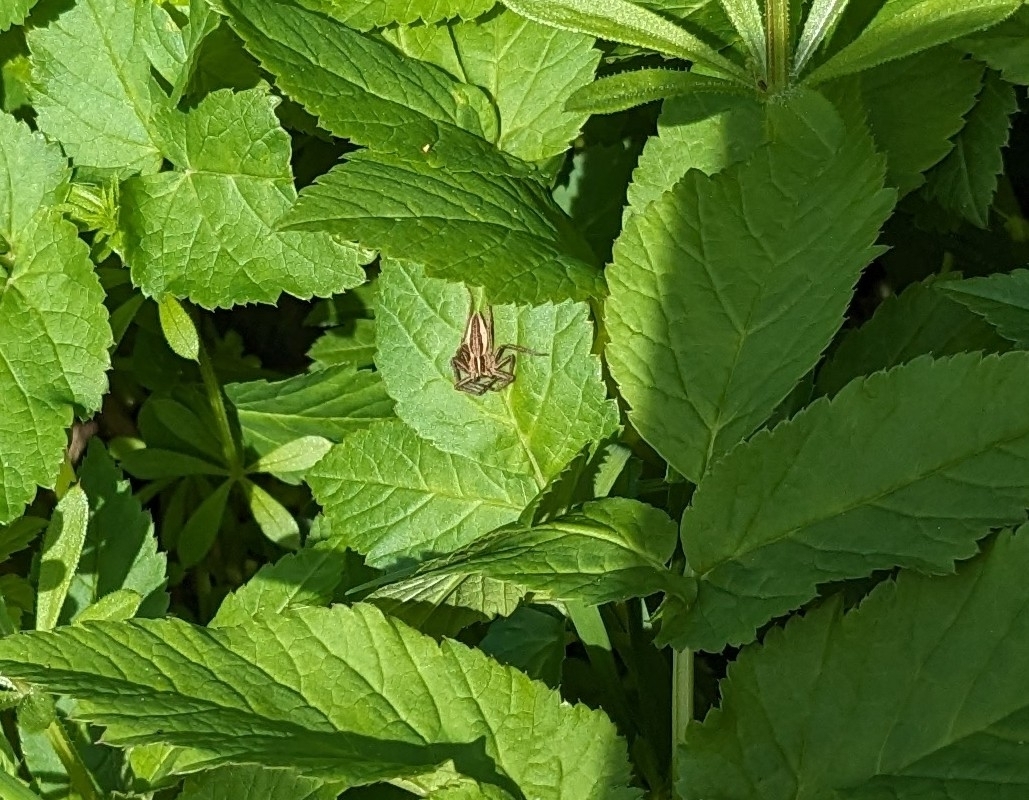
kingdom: Animalia
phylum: Arthropoda
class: Arachnida
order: Araneae
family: Pisauridae
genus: Pisaura
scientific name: Pisaura mirabilis
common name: Tent spider
